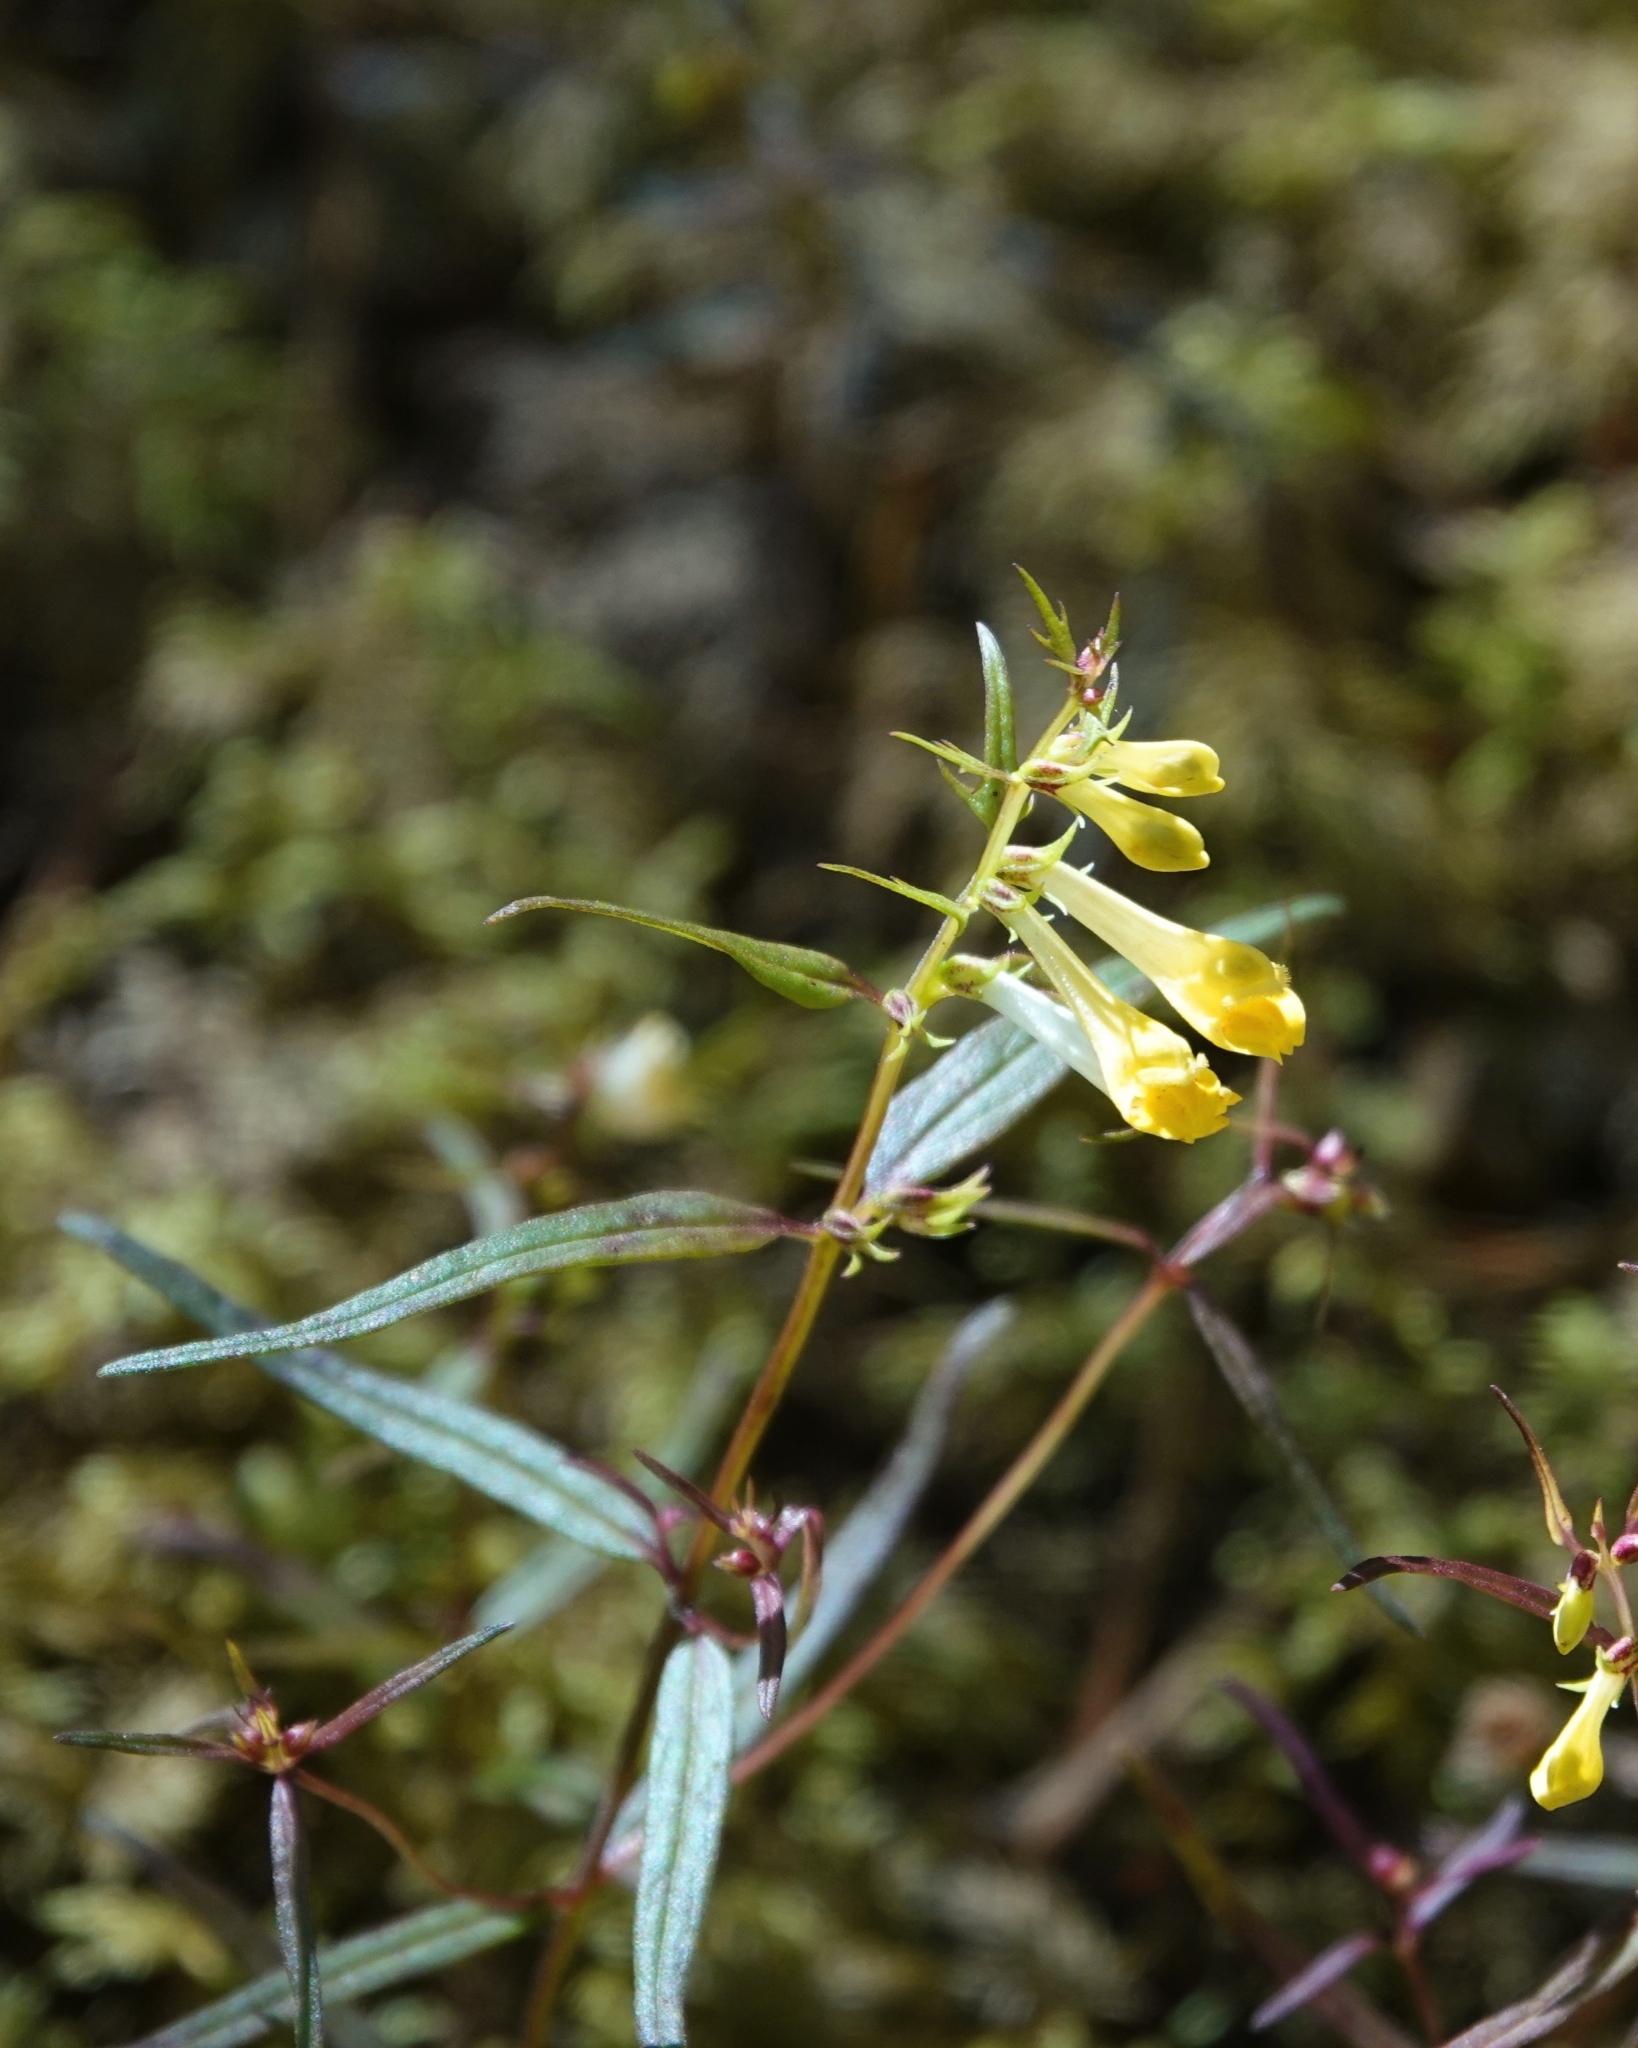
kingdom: Plantae
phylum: Tracheophyta
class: Magnoliopsida
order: Lamiales
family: Orobanchaceae
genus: Melampyrum
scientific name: Melampyrum pratense
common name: Common cow-wheat
